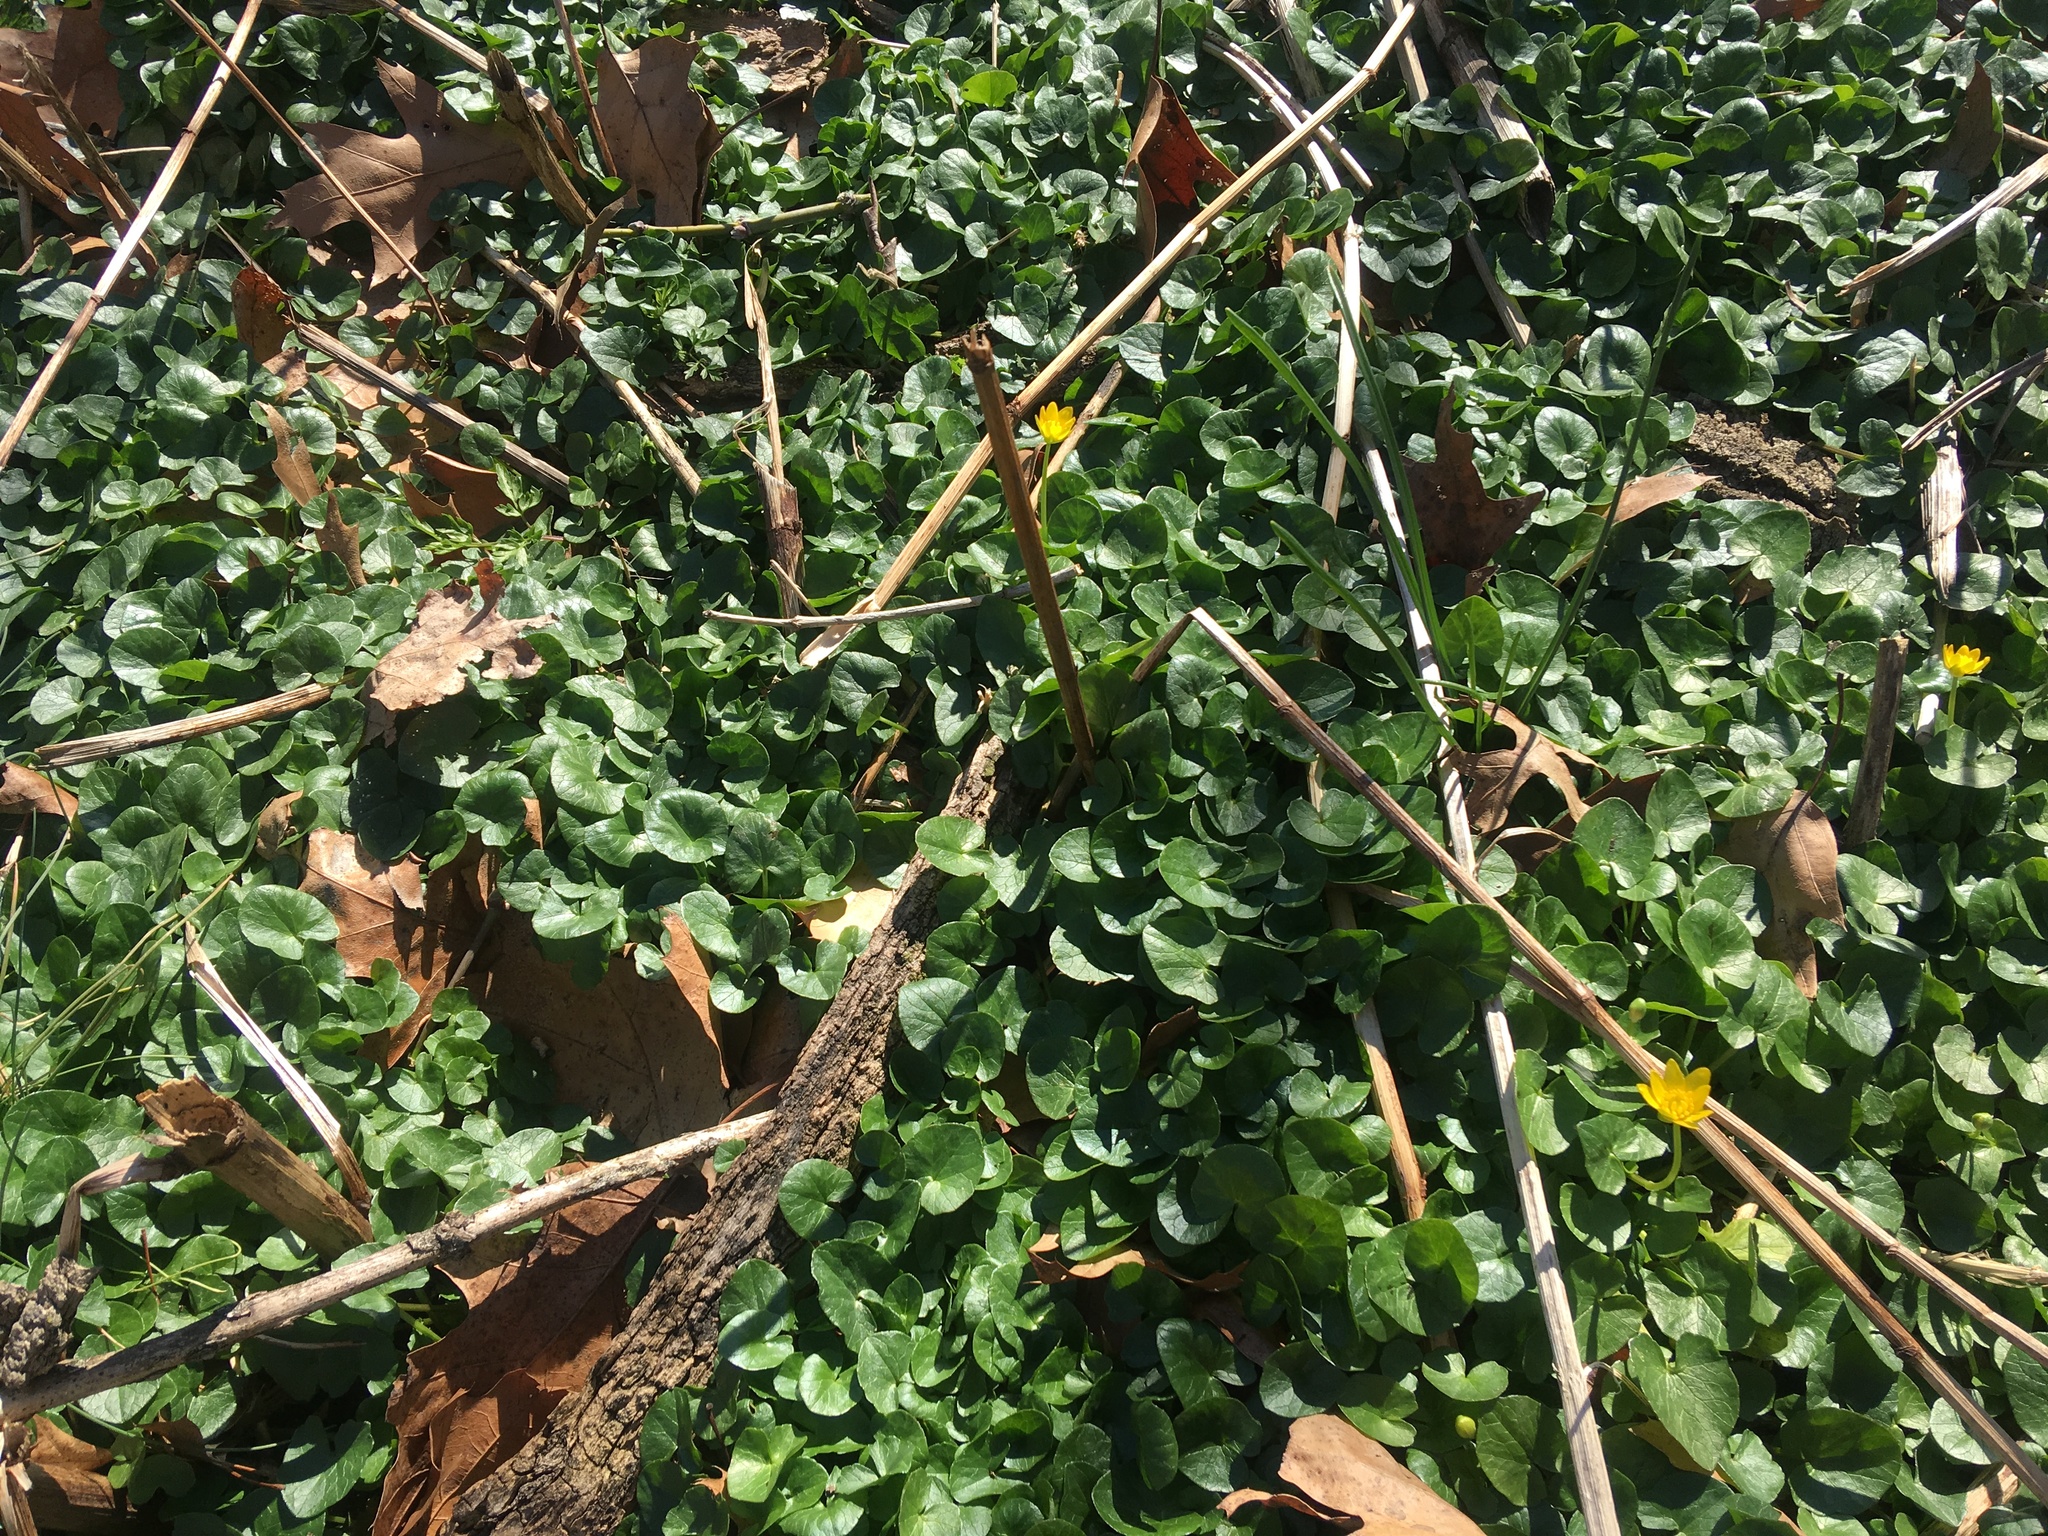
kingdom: Plantae
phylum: Tracheophyta
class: Magnoliopsida
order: Ranunculales
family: Ranunculaceae
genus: Ficaria
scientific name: Ficaria verna
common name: Lesser celandine
